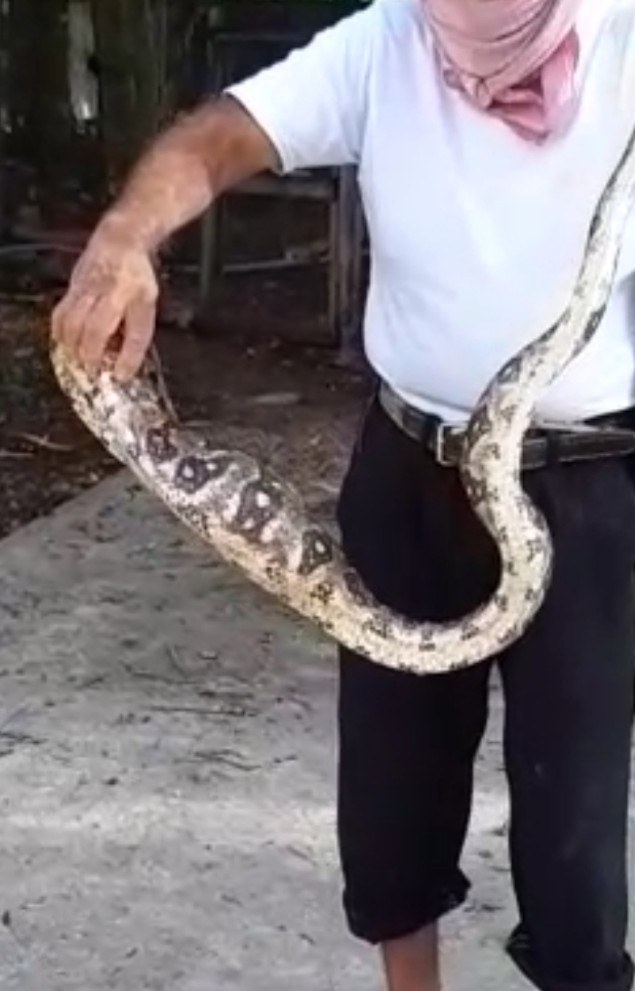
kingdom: Animalia
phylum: Chordata
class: Squamata
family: Boidae
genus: Boa
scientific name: Boa imperator
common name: Central american boa
